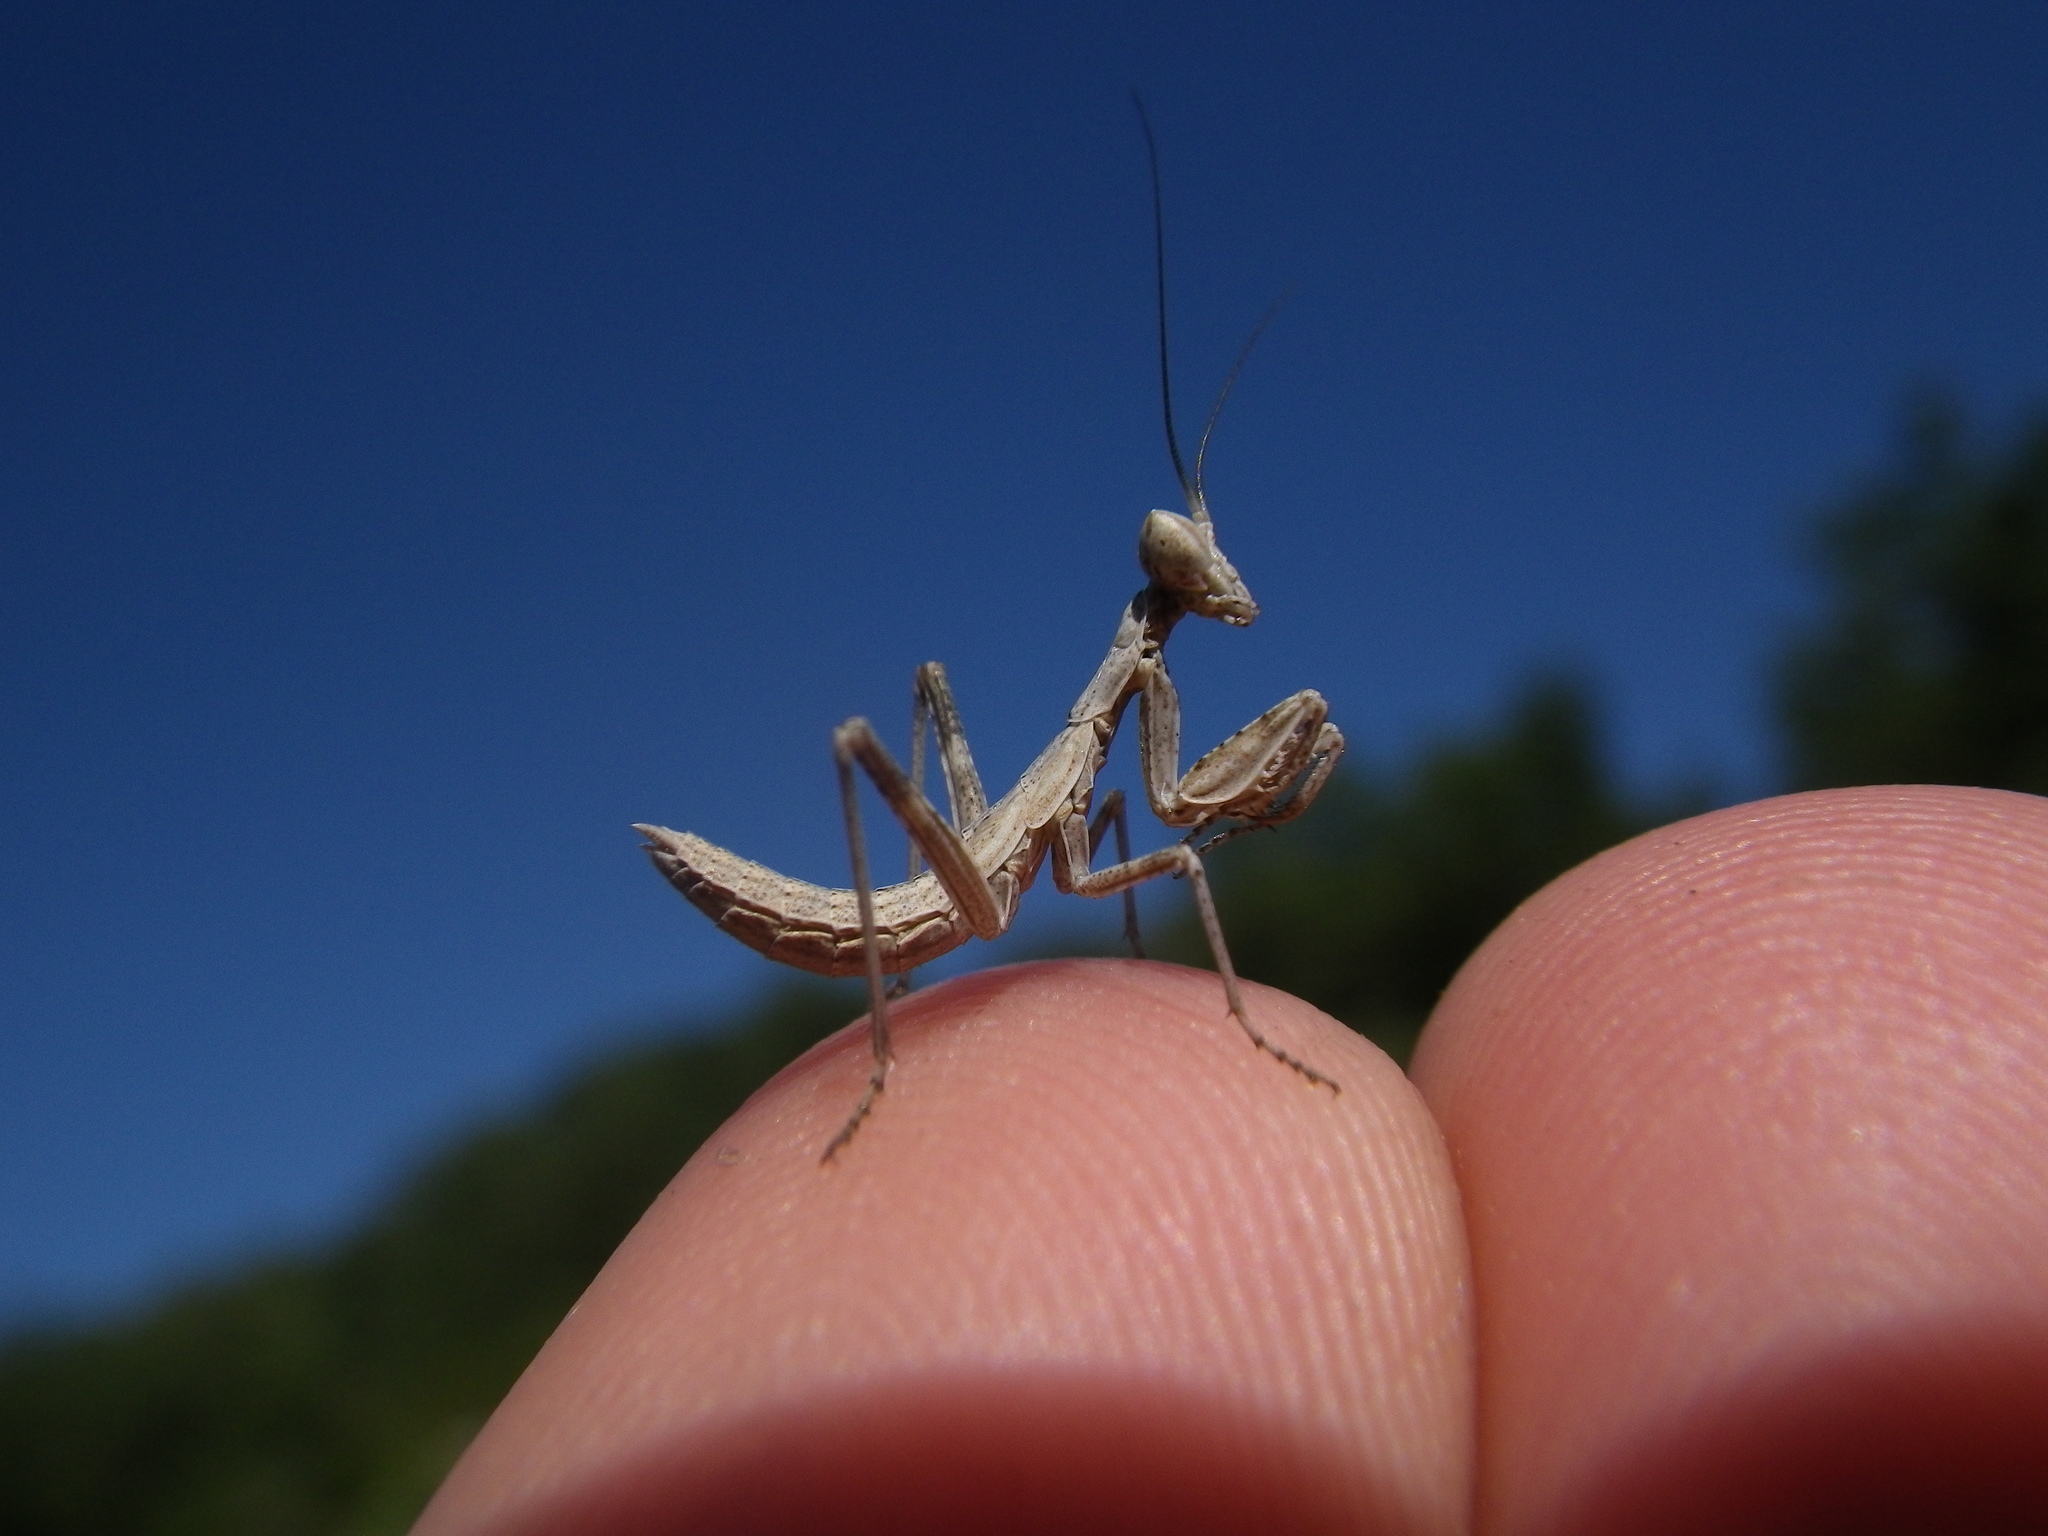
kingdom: Animalia
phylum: Arthropoda
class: Insecta
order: Mantodea
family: Amelidae
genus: Ameles
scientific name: Ameles decolor
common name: Dwarf mantis
